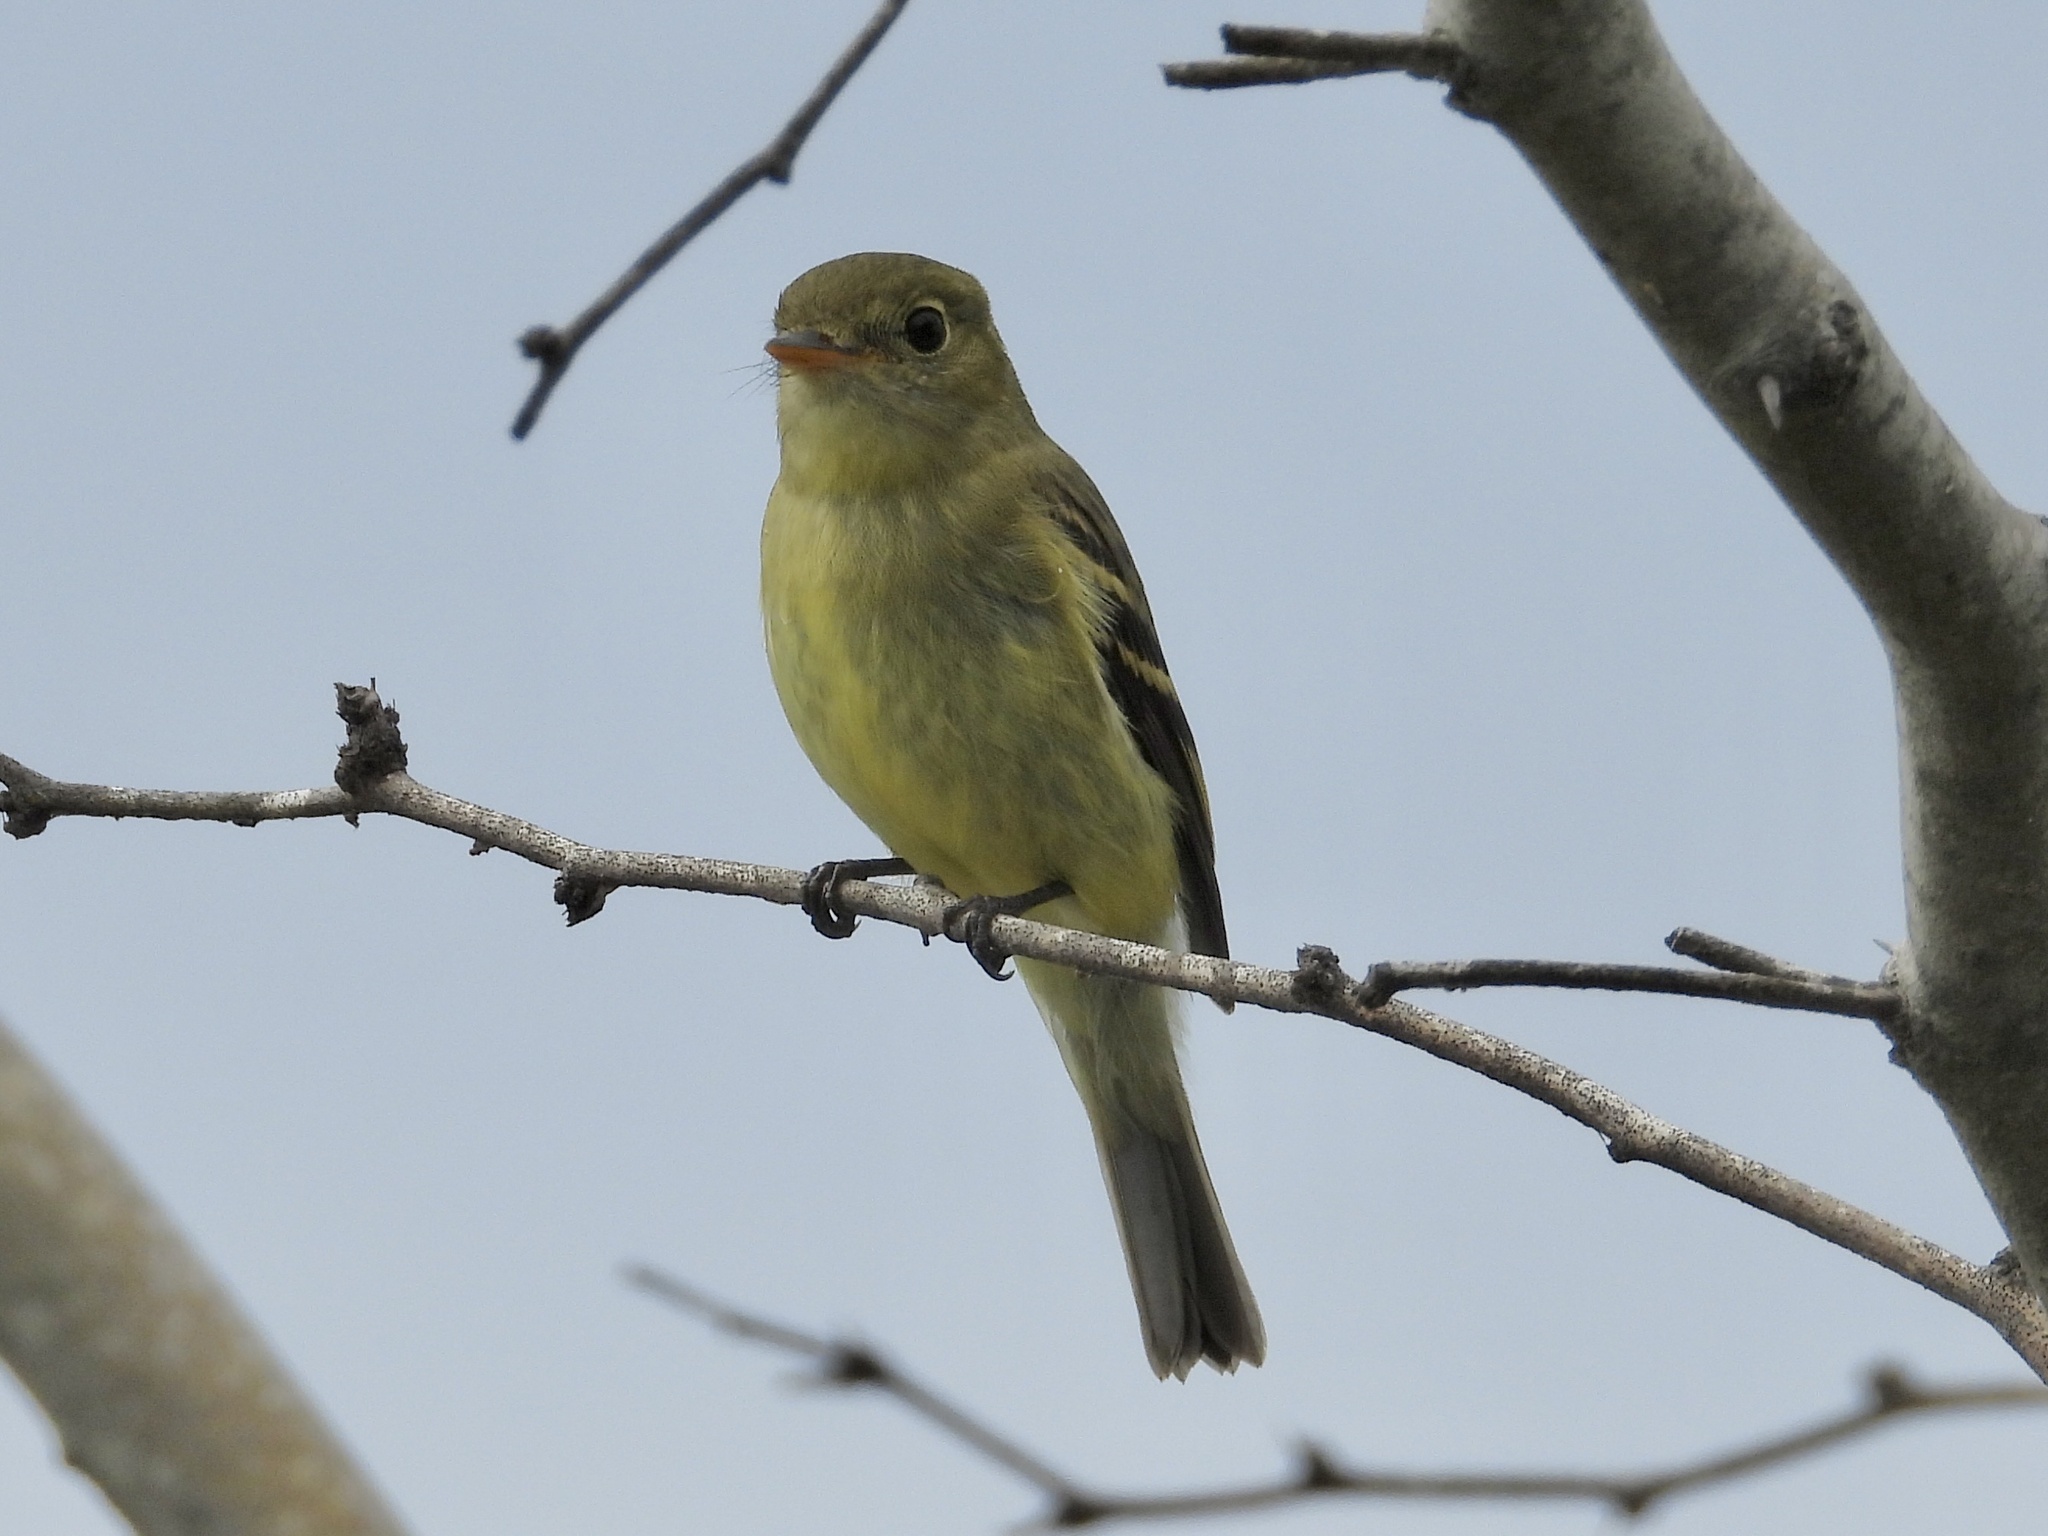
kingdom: Animalia
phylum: Chordata
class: Aves
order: Passeriformes
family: Tyrannidae
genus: Empidonax
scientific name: Empidonax flaviventris
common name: Yellow-bellied flycatcher
